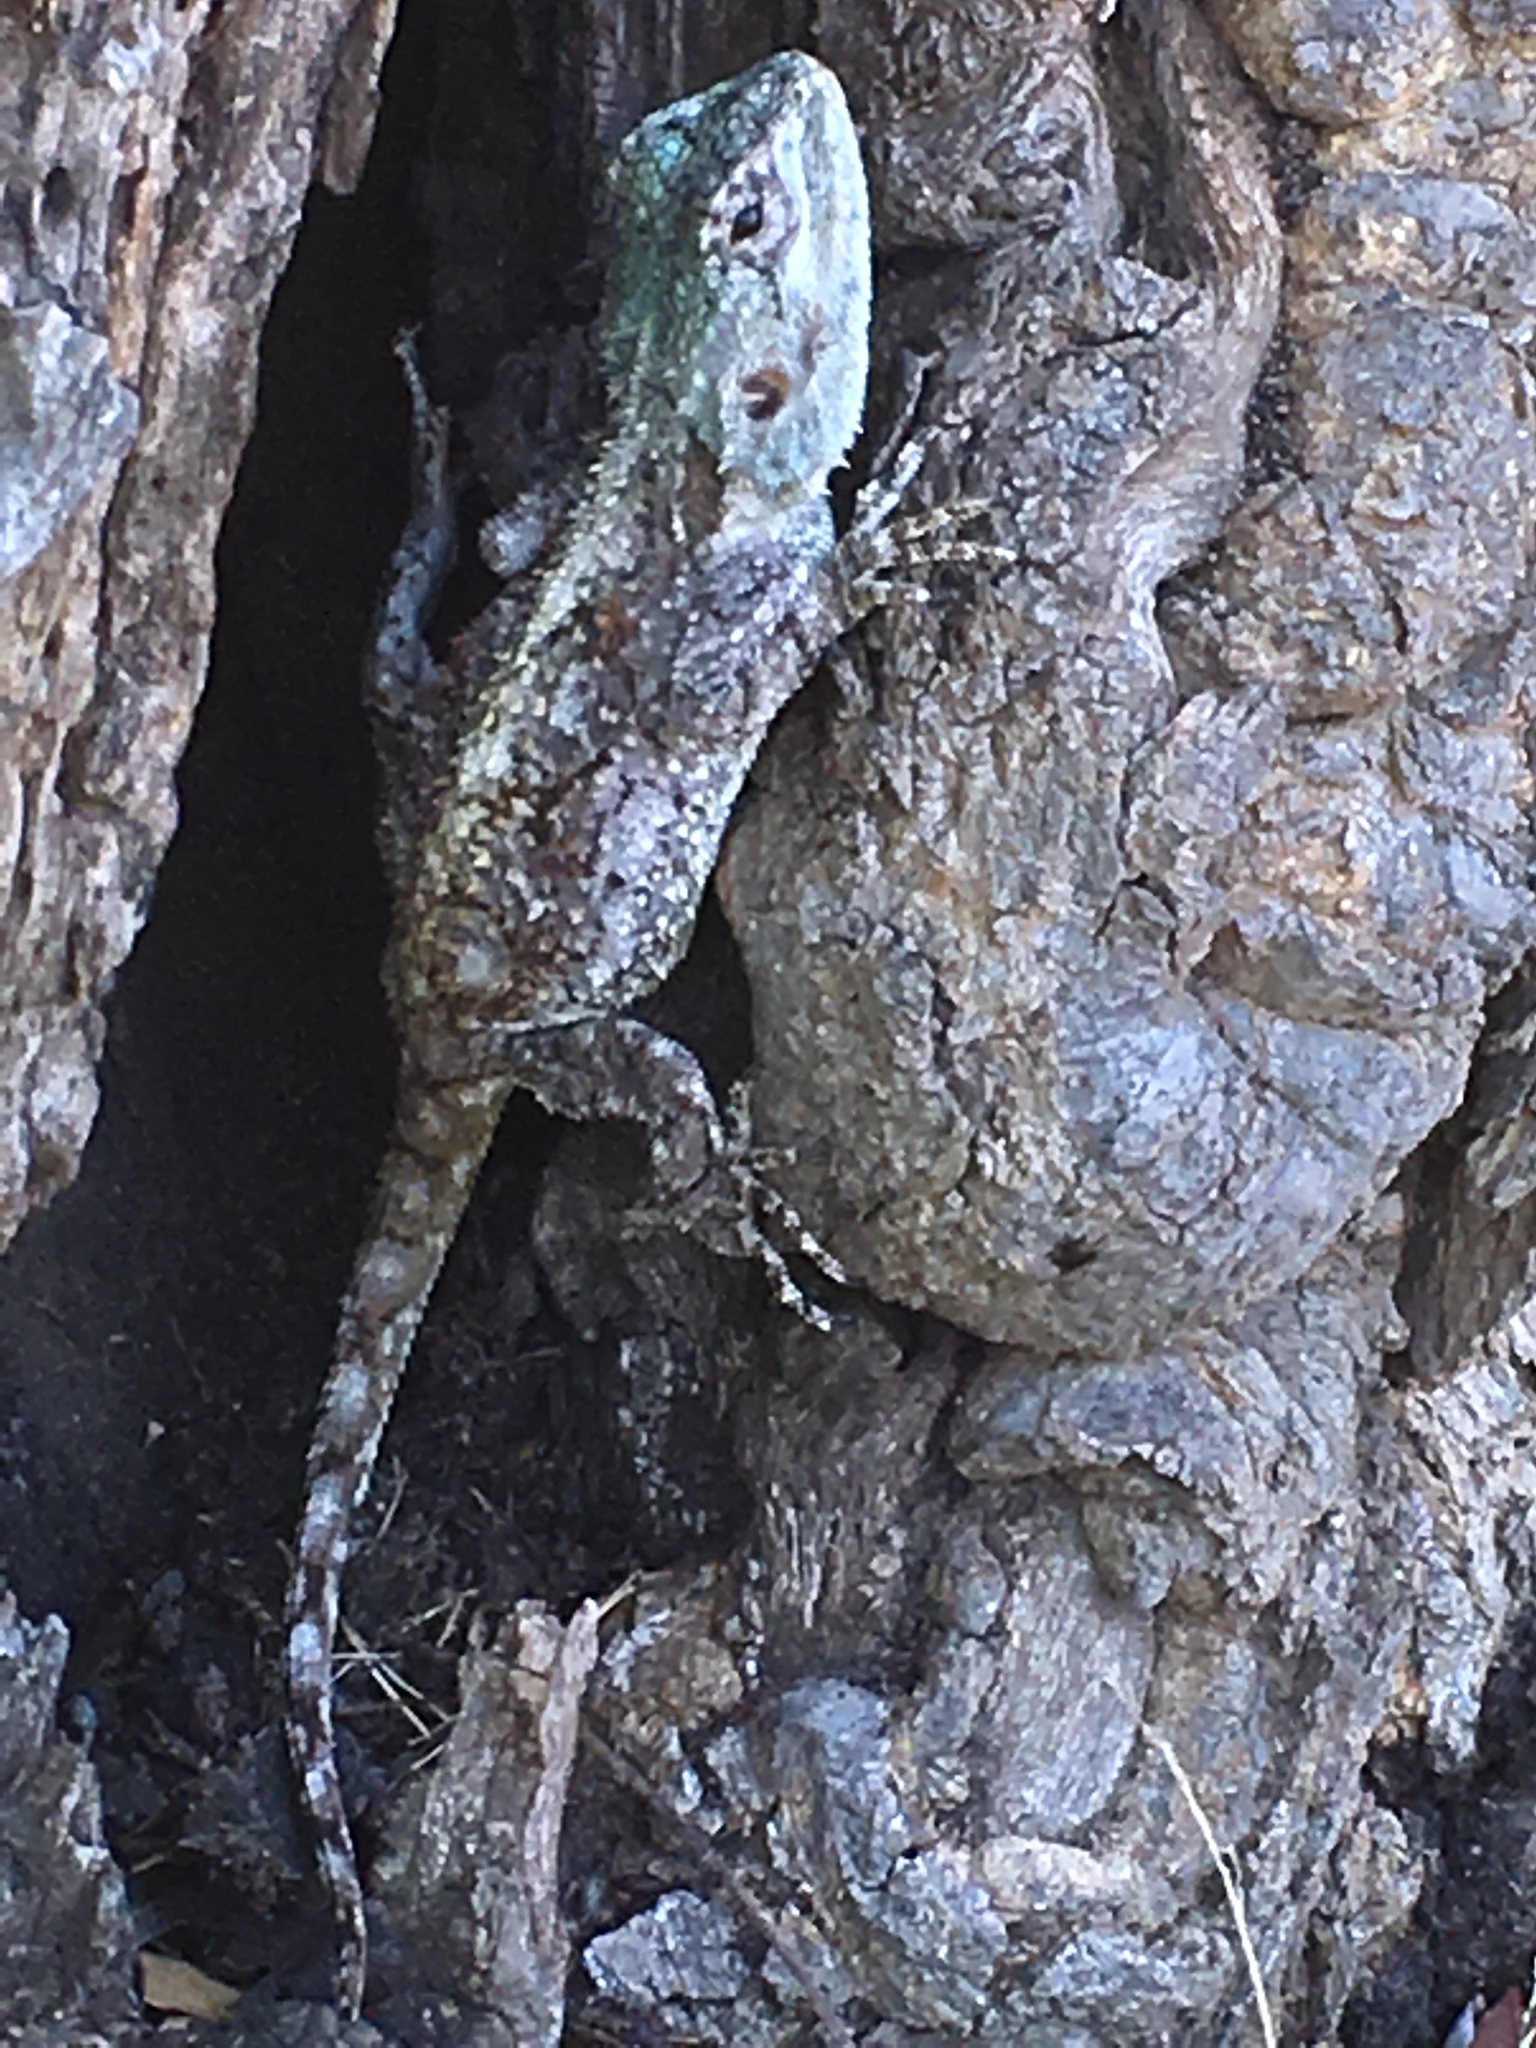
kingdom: Animalia
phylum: Chordata
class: Squamata
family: Agamidae
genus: Acanthocercus
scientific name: Acanthocercus atricollis
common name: Southern tree agama
